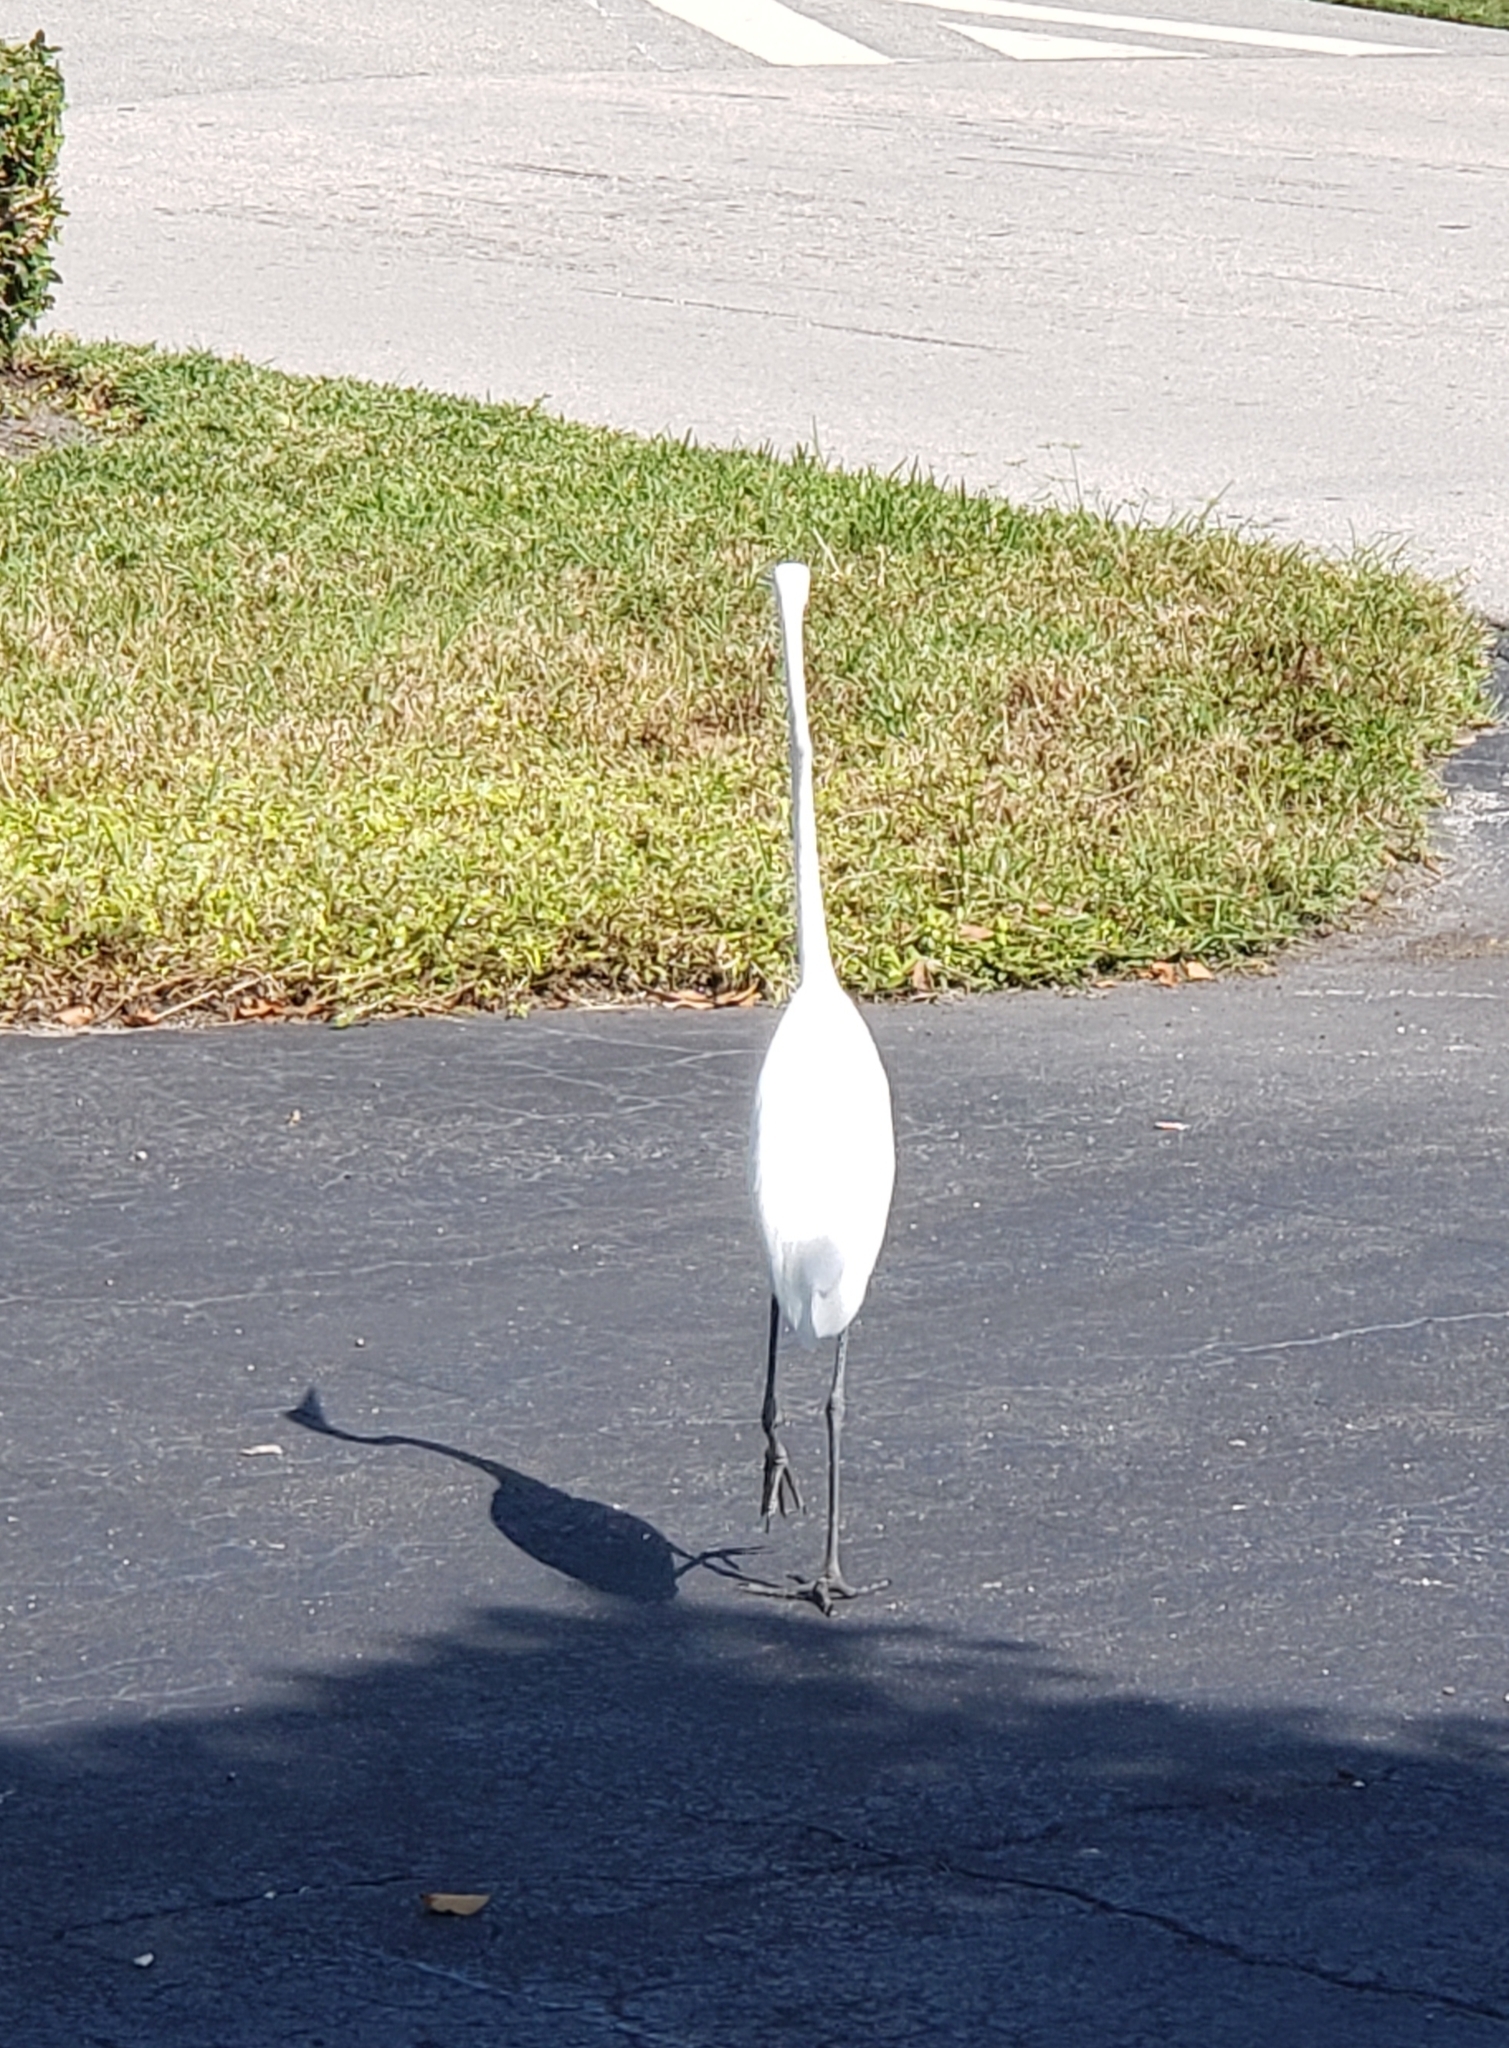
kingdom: Animalia
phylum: Chordata
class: Aves
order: Pelecaniformes
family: Ardeidae
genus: Ardea
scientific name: Ardea alba
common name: Great egret
